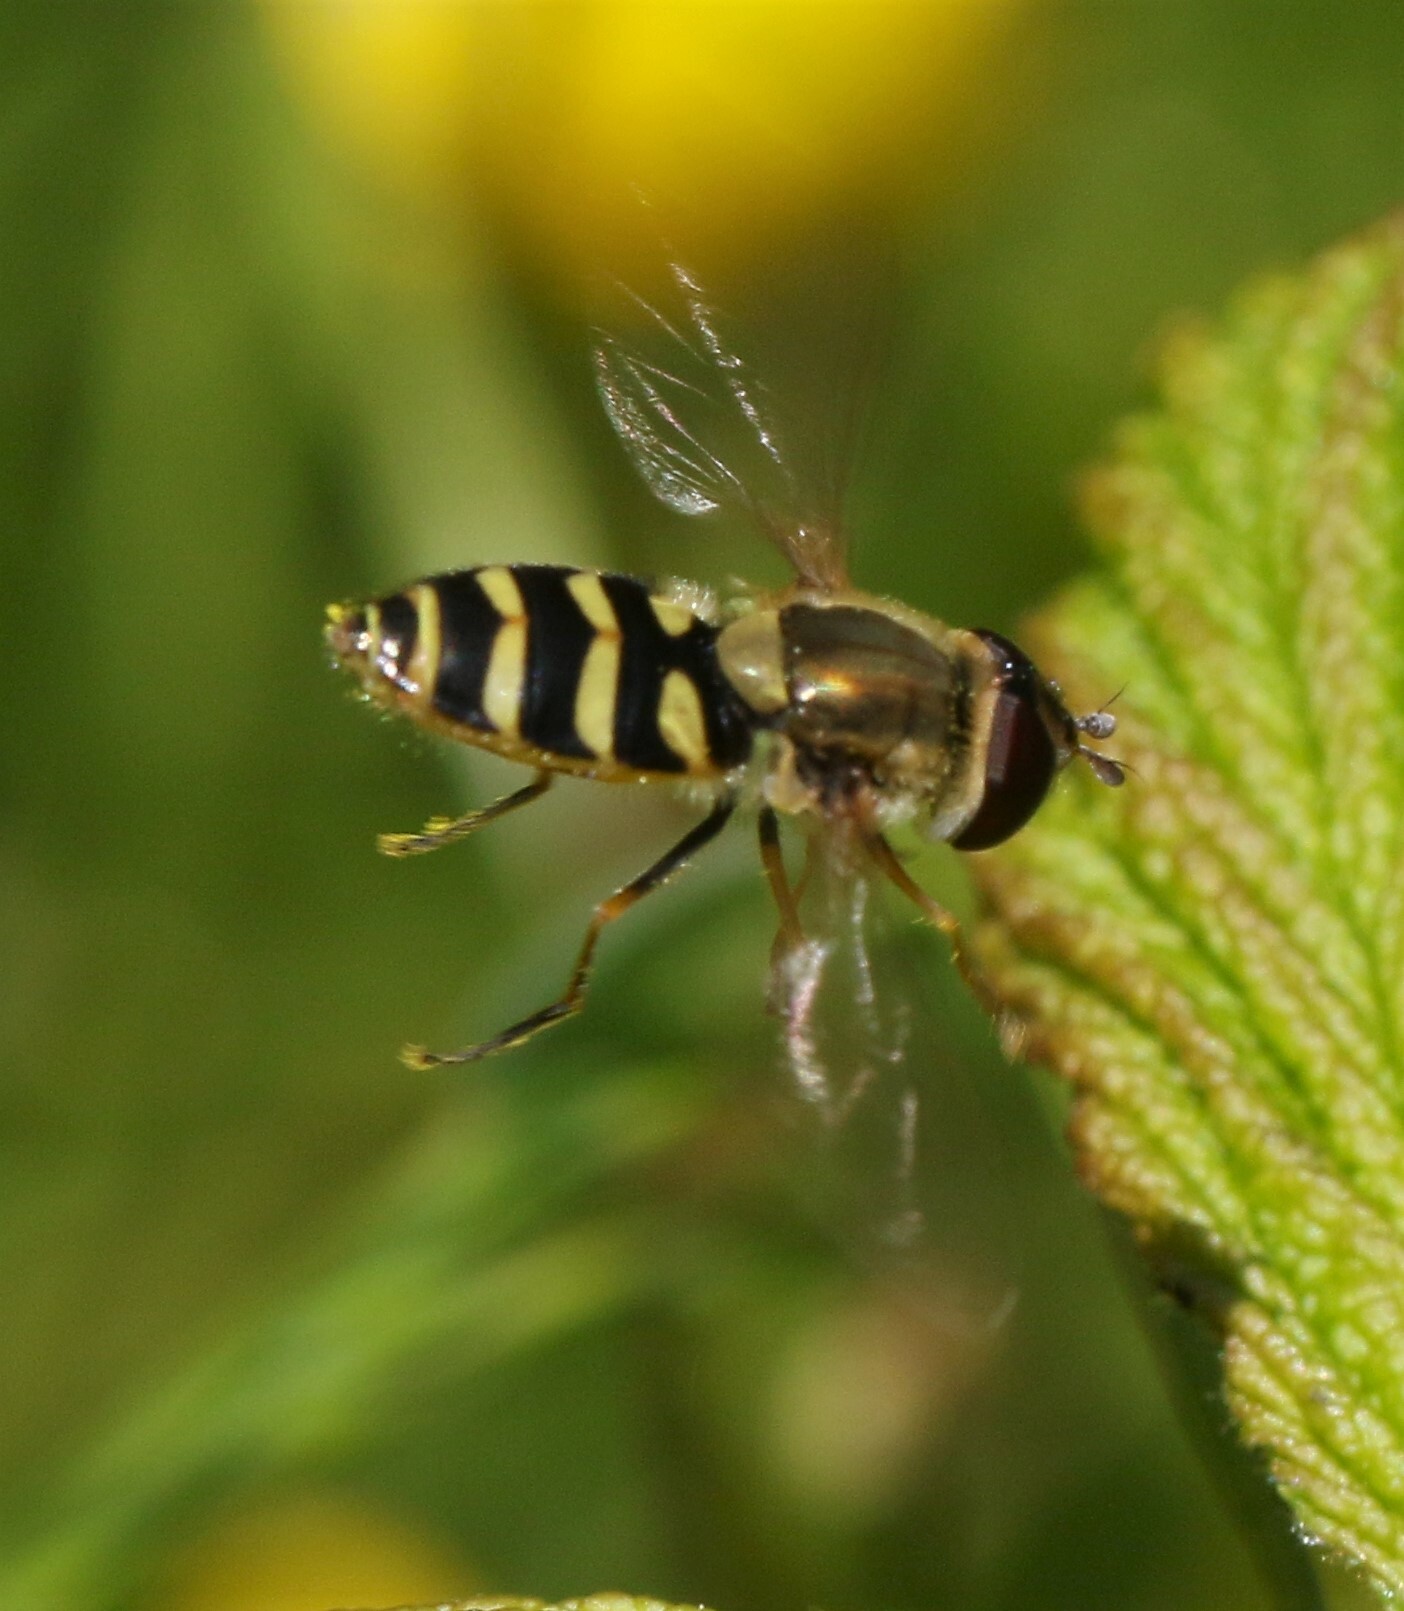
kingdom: Animalia
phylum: Arthropoda
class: Insecta
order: Diptera
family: Syrphidae
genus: Syrphus
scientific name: Syrphus
